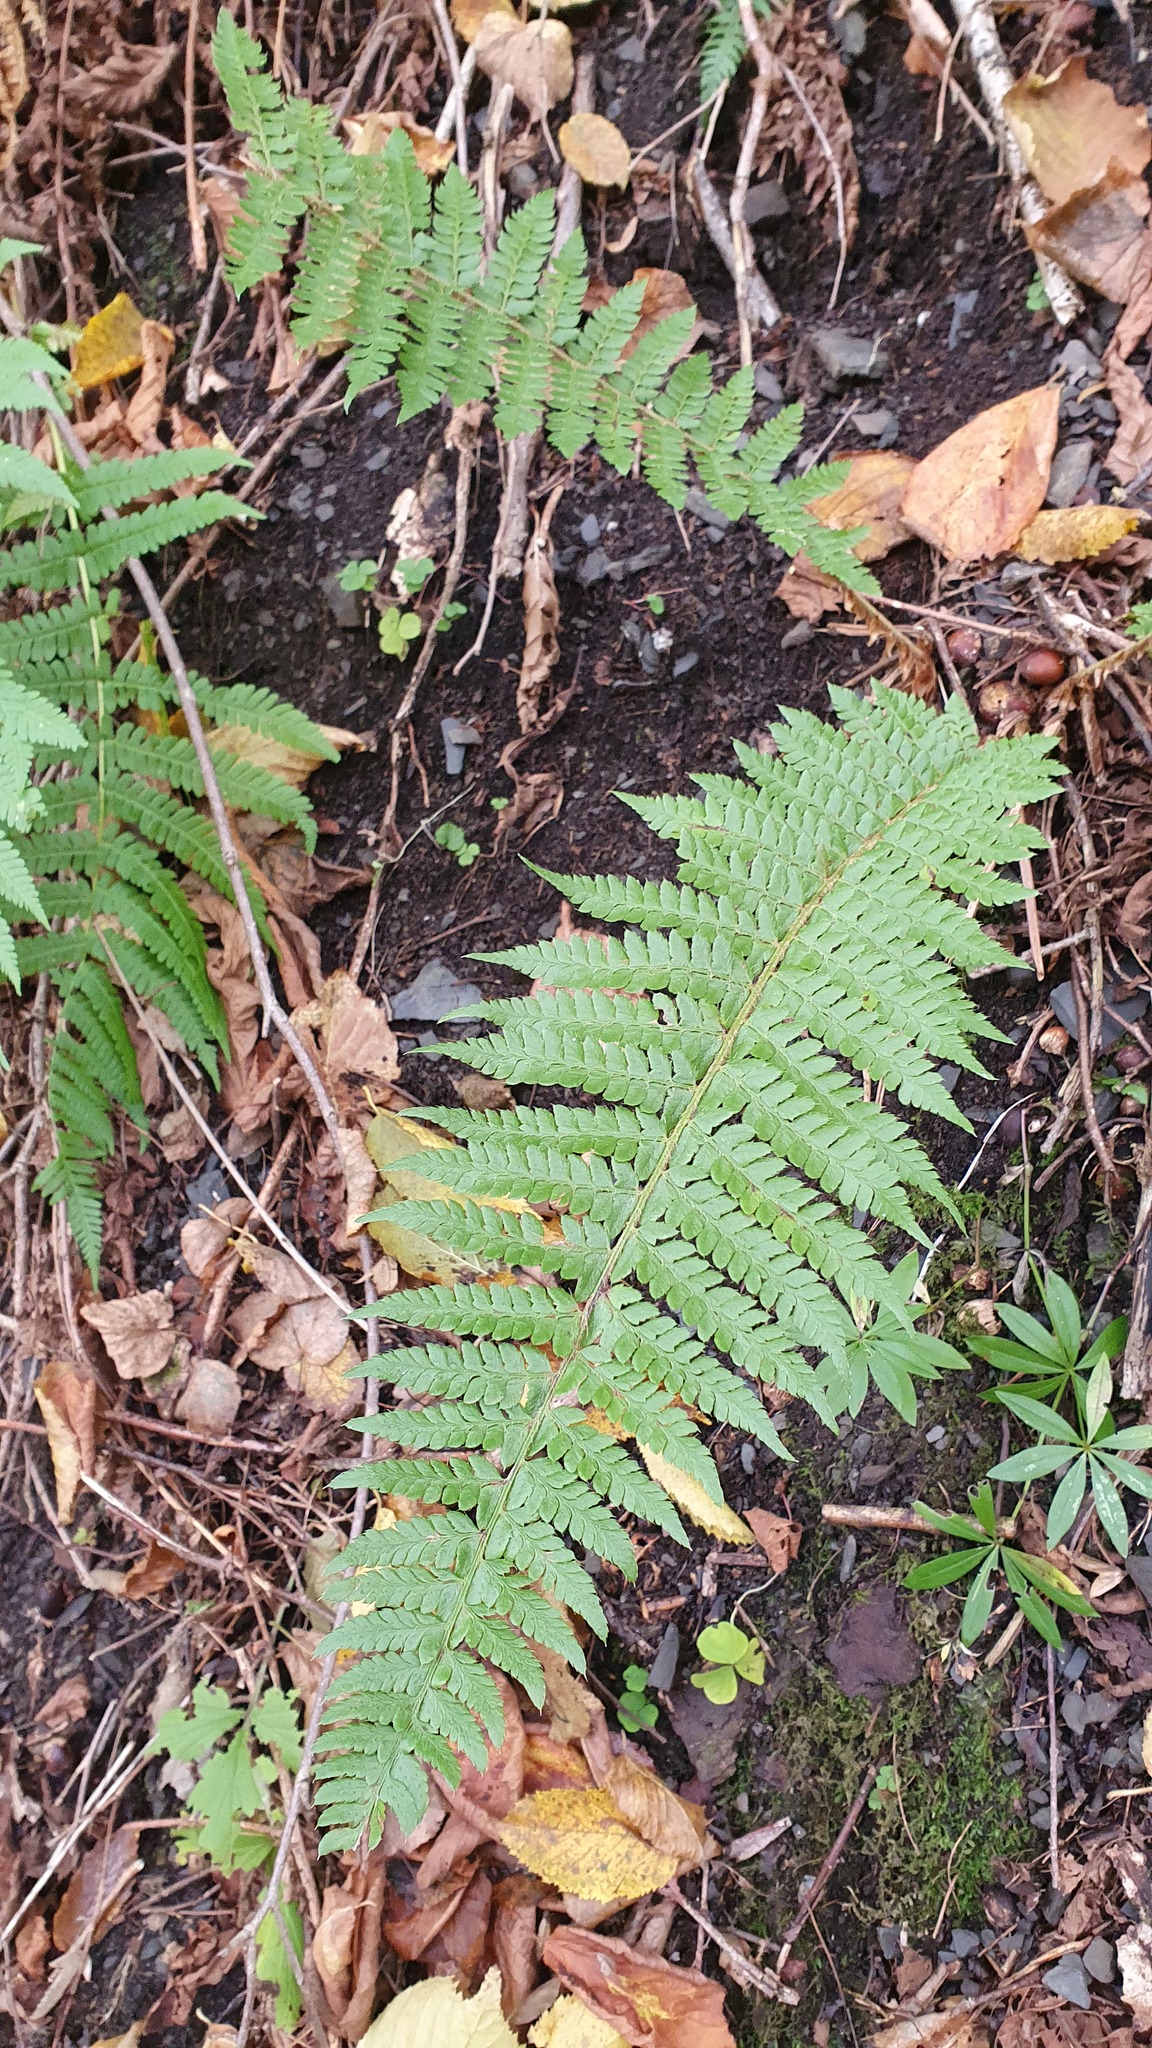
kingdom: Plantae
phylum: Tracheophyta
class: Polypodiopsida
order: Polypodiales
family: Dryopteridaceae
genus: Polystichum
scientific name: Polystichum braunii
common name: Braun's holly fern
